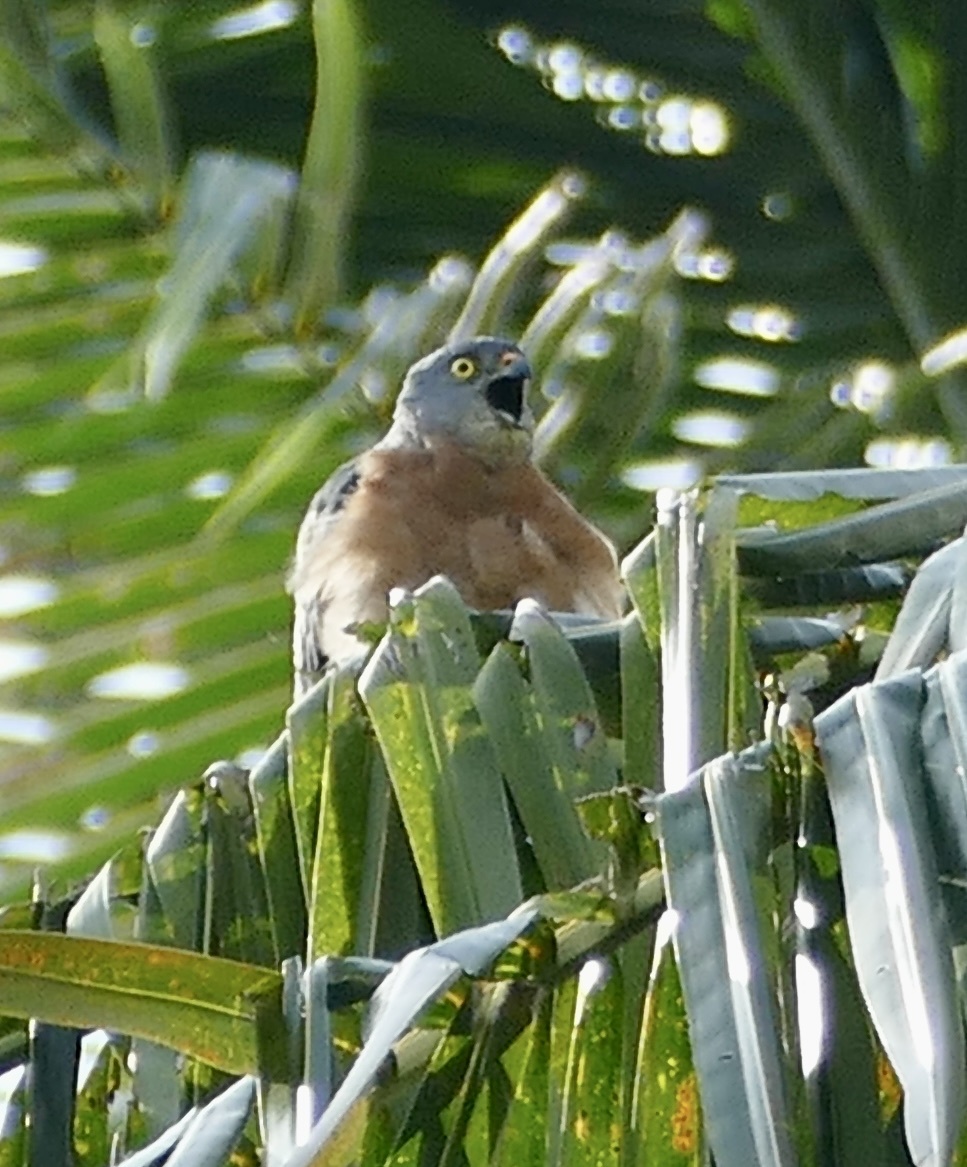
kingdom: Animalia
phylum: Chordata
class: Aves
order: Accipitriformes
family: Accipitridae
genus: Accipiter
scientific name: Accipiter soloensis
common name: Chinese sparrowhawk
